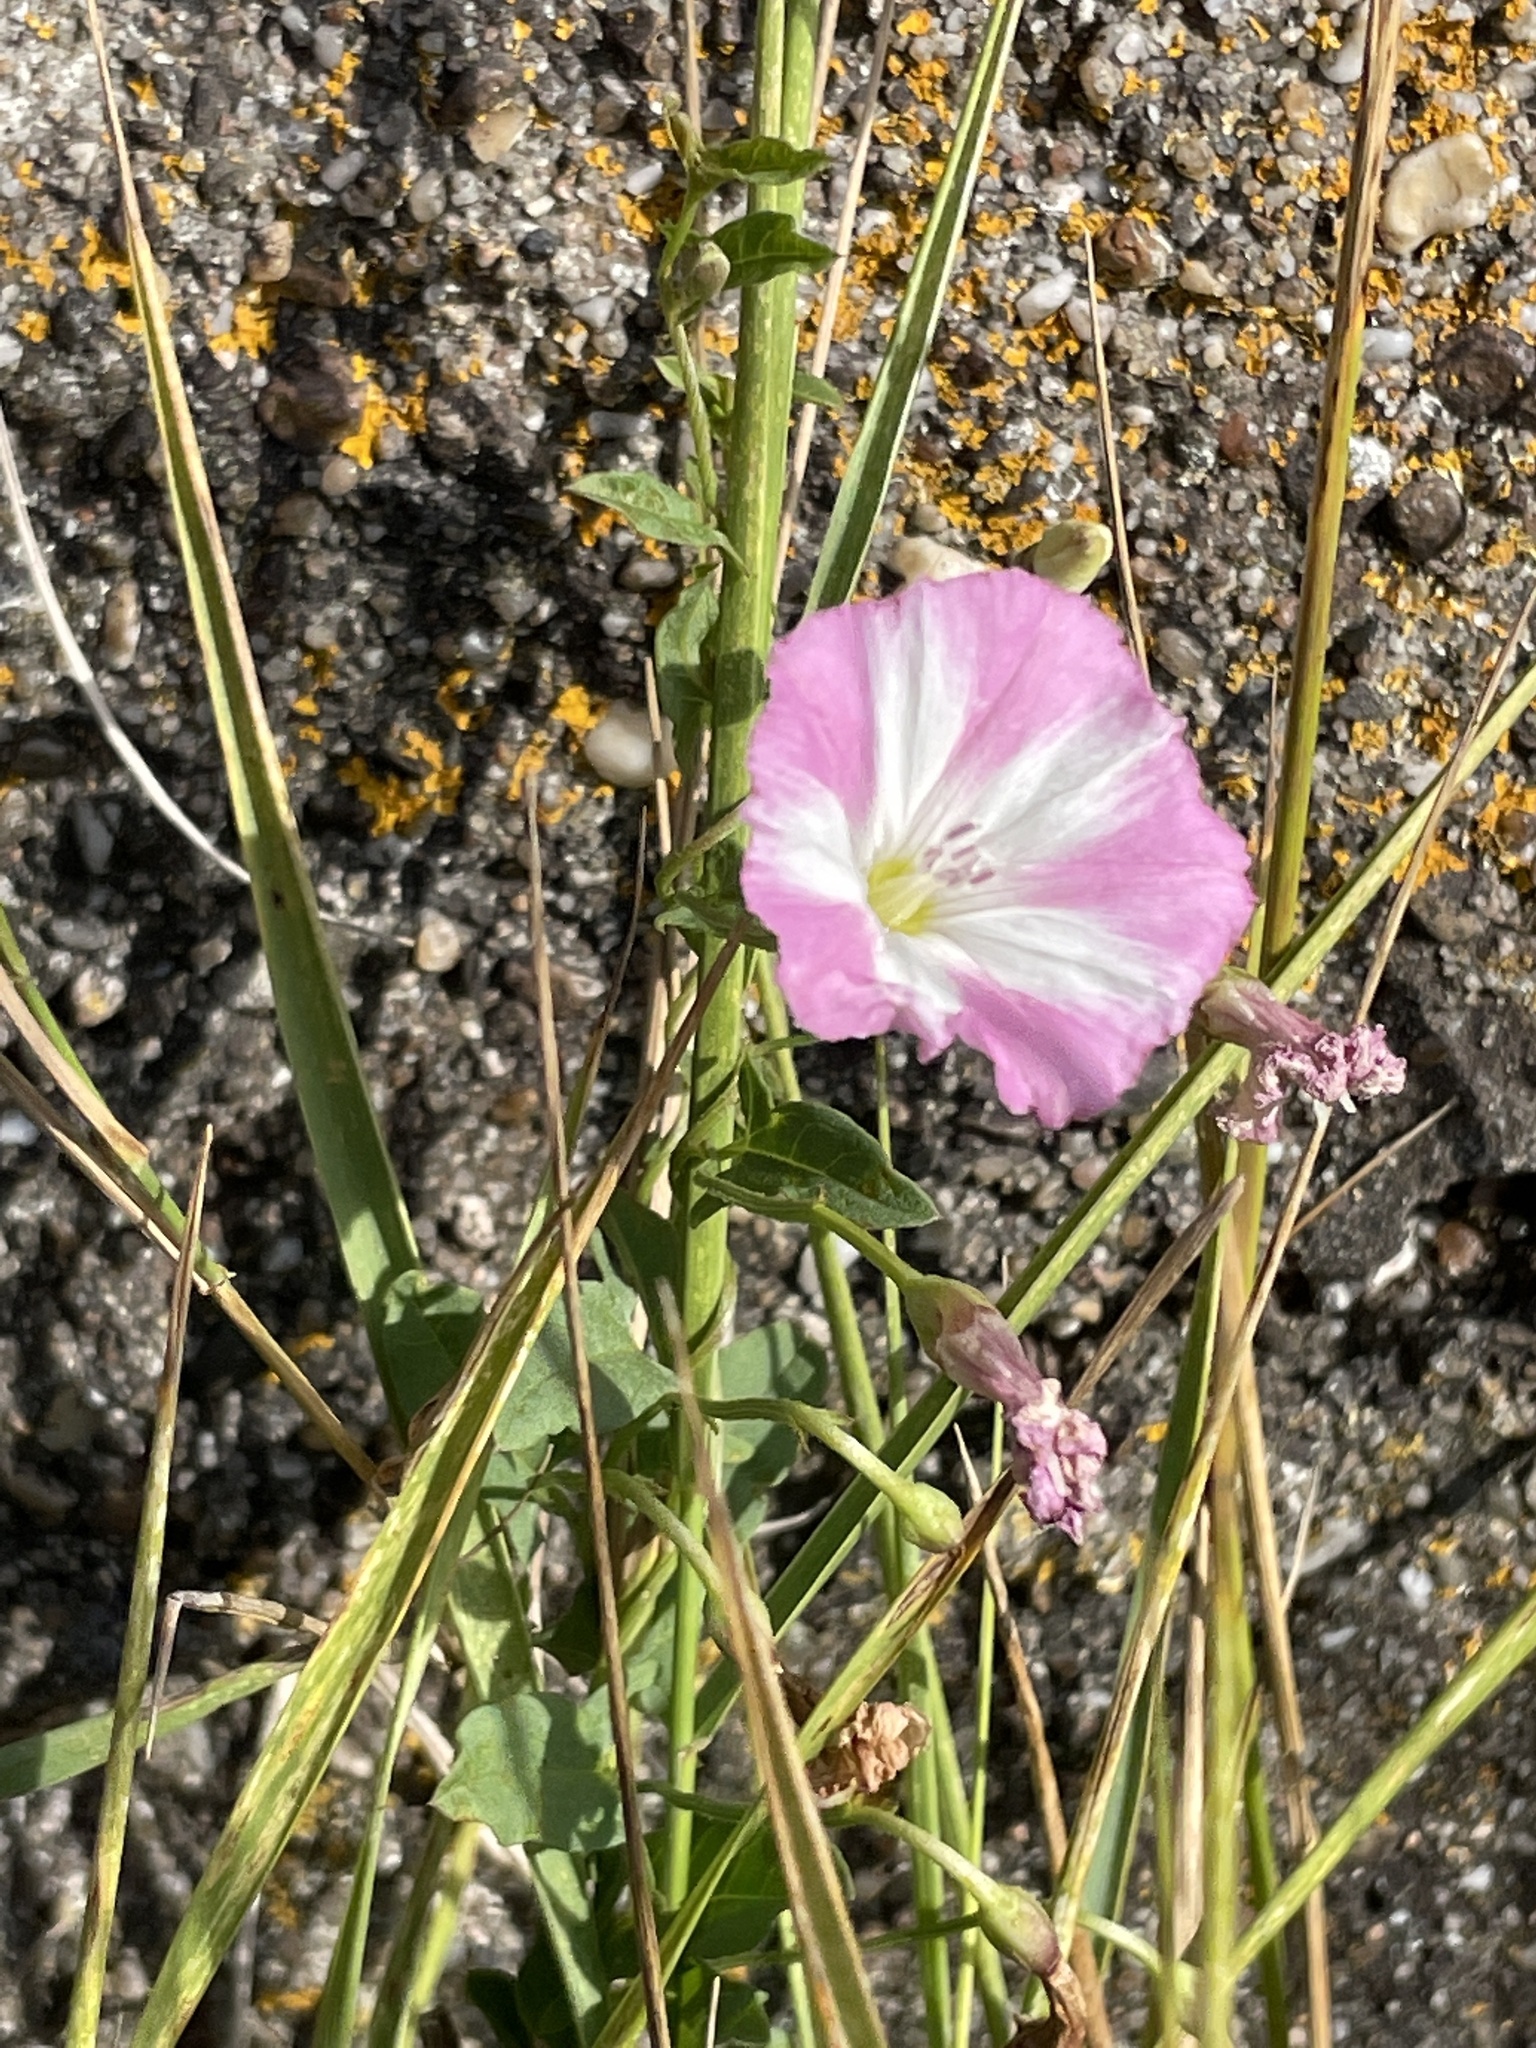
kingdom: Plantae
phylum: Tracheophyta
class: Magnoliopsida
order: Solanales
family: Convolvulaceae
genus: Convolvulus
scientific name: Convolvulus arvensis
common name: Field bindweed
